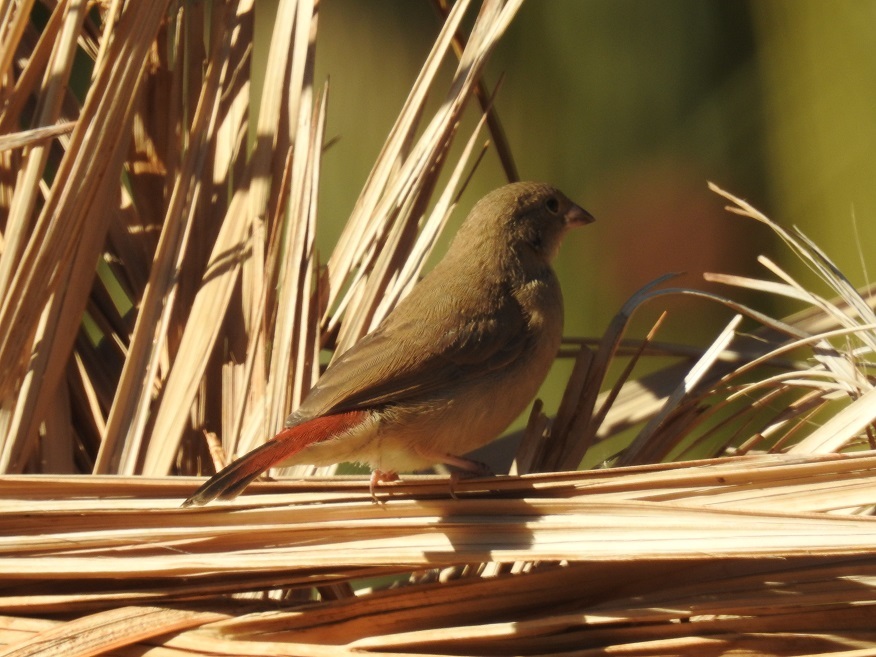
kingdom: Animalia
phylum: Chordata
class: Aves
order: Passeriformes
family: Estrildidae
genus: Lagonosticta
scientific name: Lagonosticta senegala
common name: Red-billed firefinch
